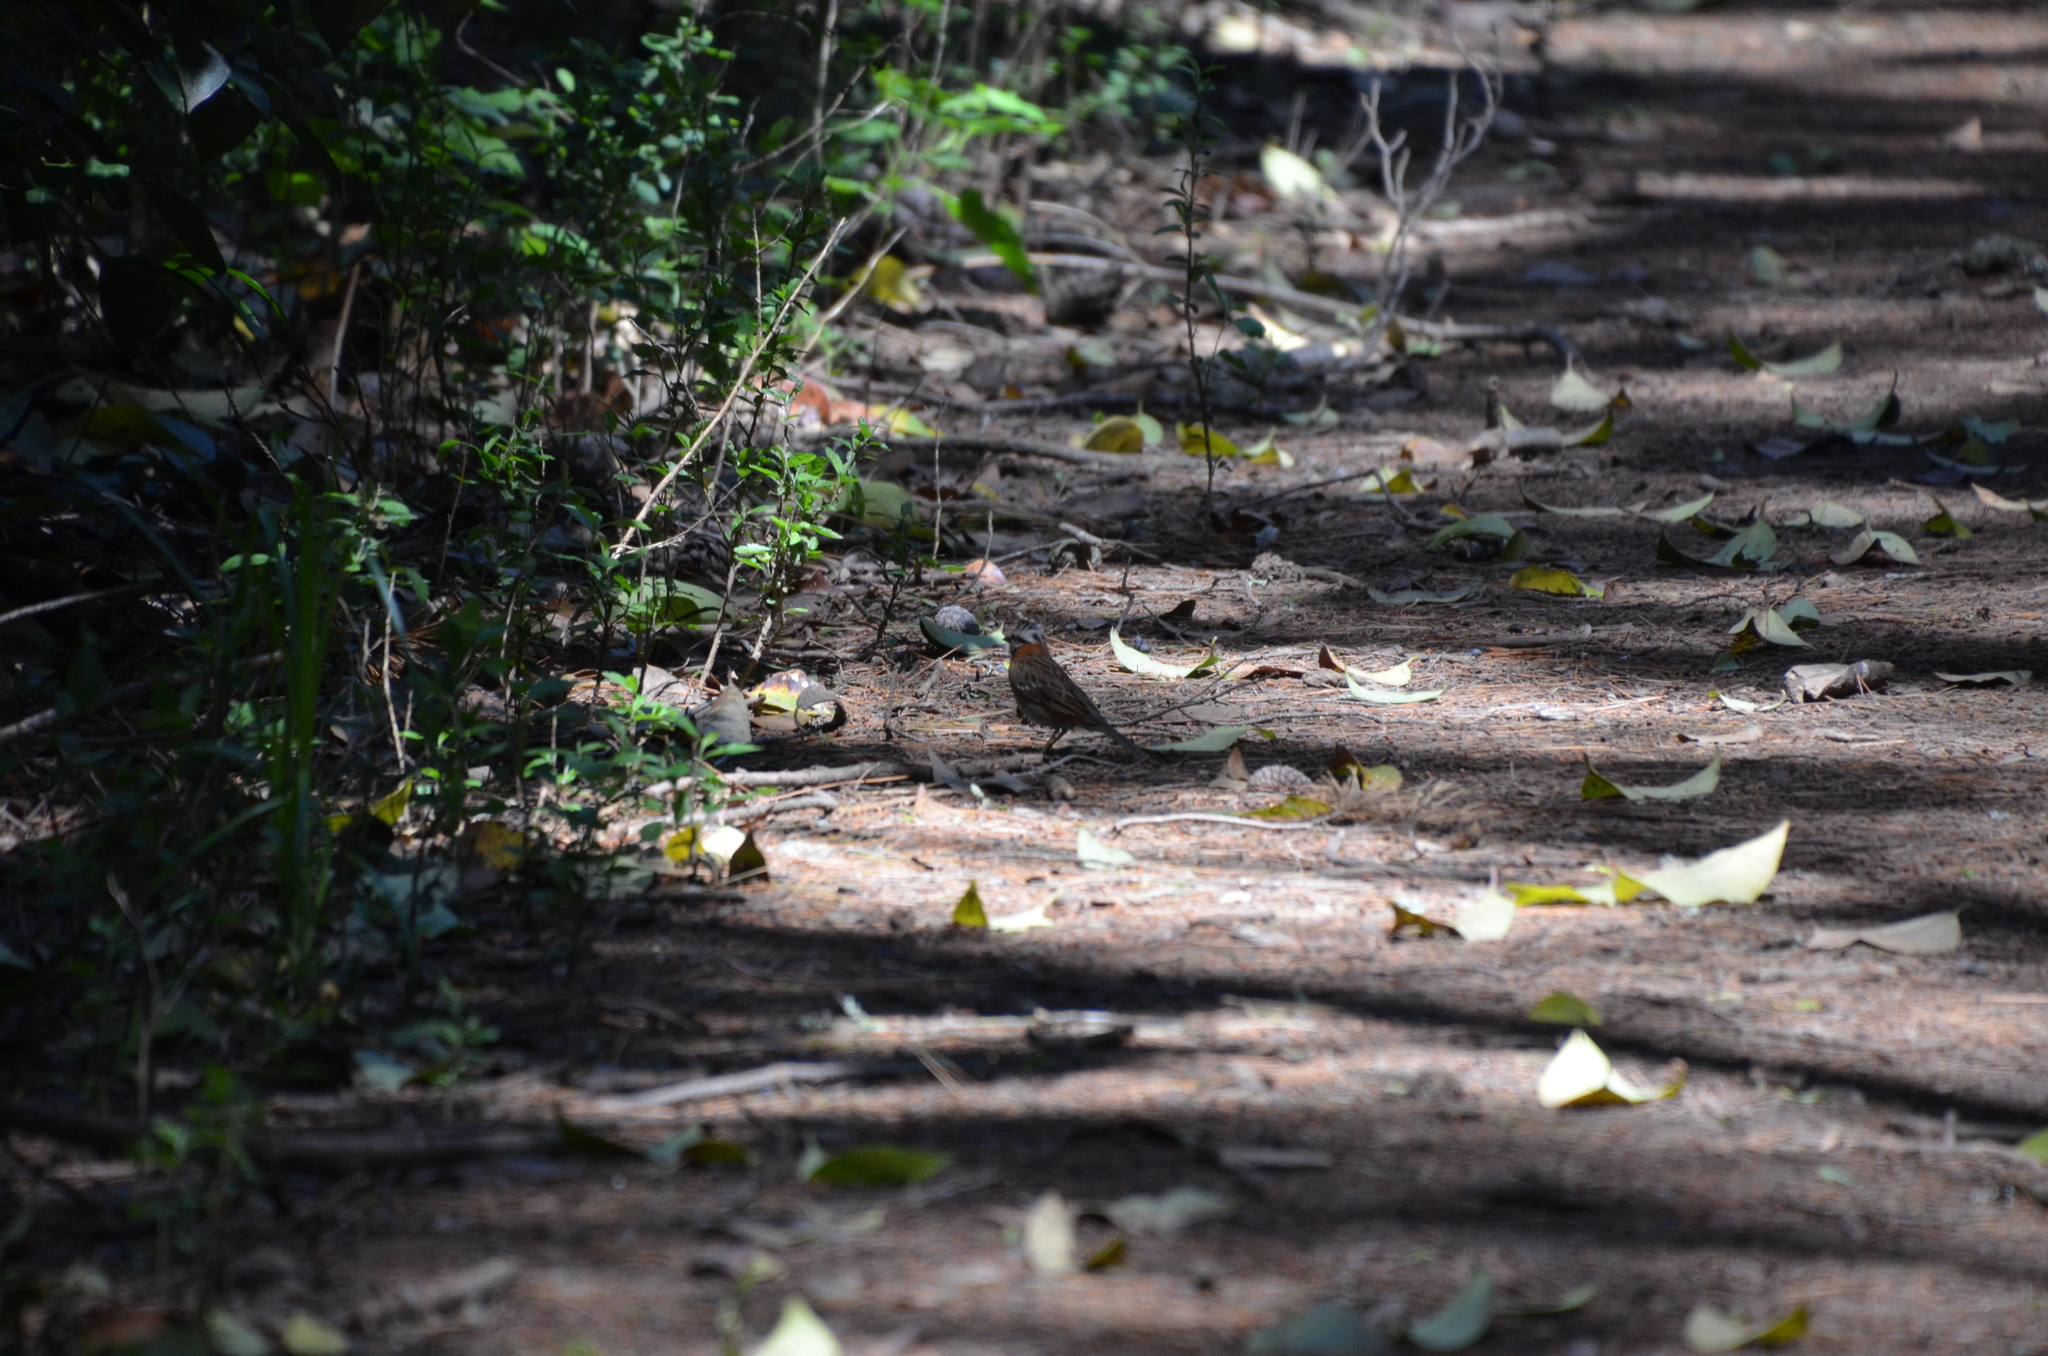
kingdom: Animalia
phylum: Chordata
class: Aves
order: Passeriformes
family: Passerellidae
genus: Zonotrichia
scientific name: Zonotrichia capensis
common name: Rufous-collared sparrow
